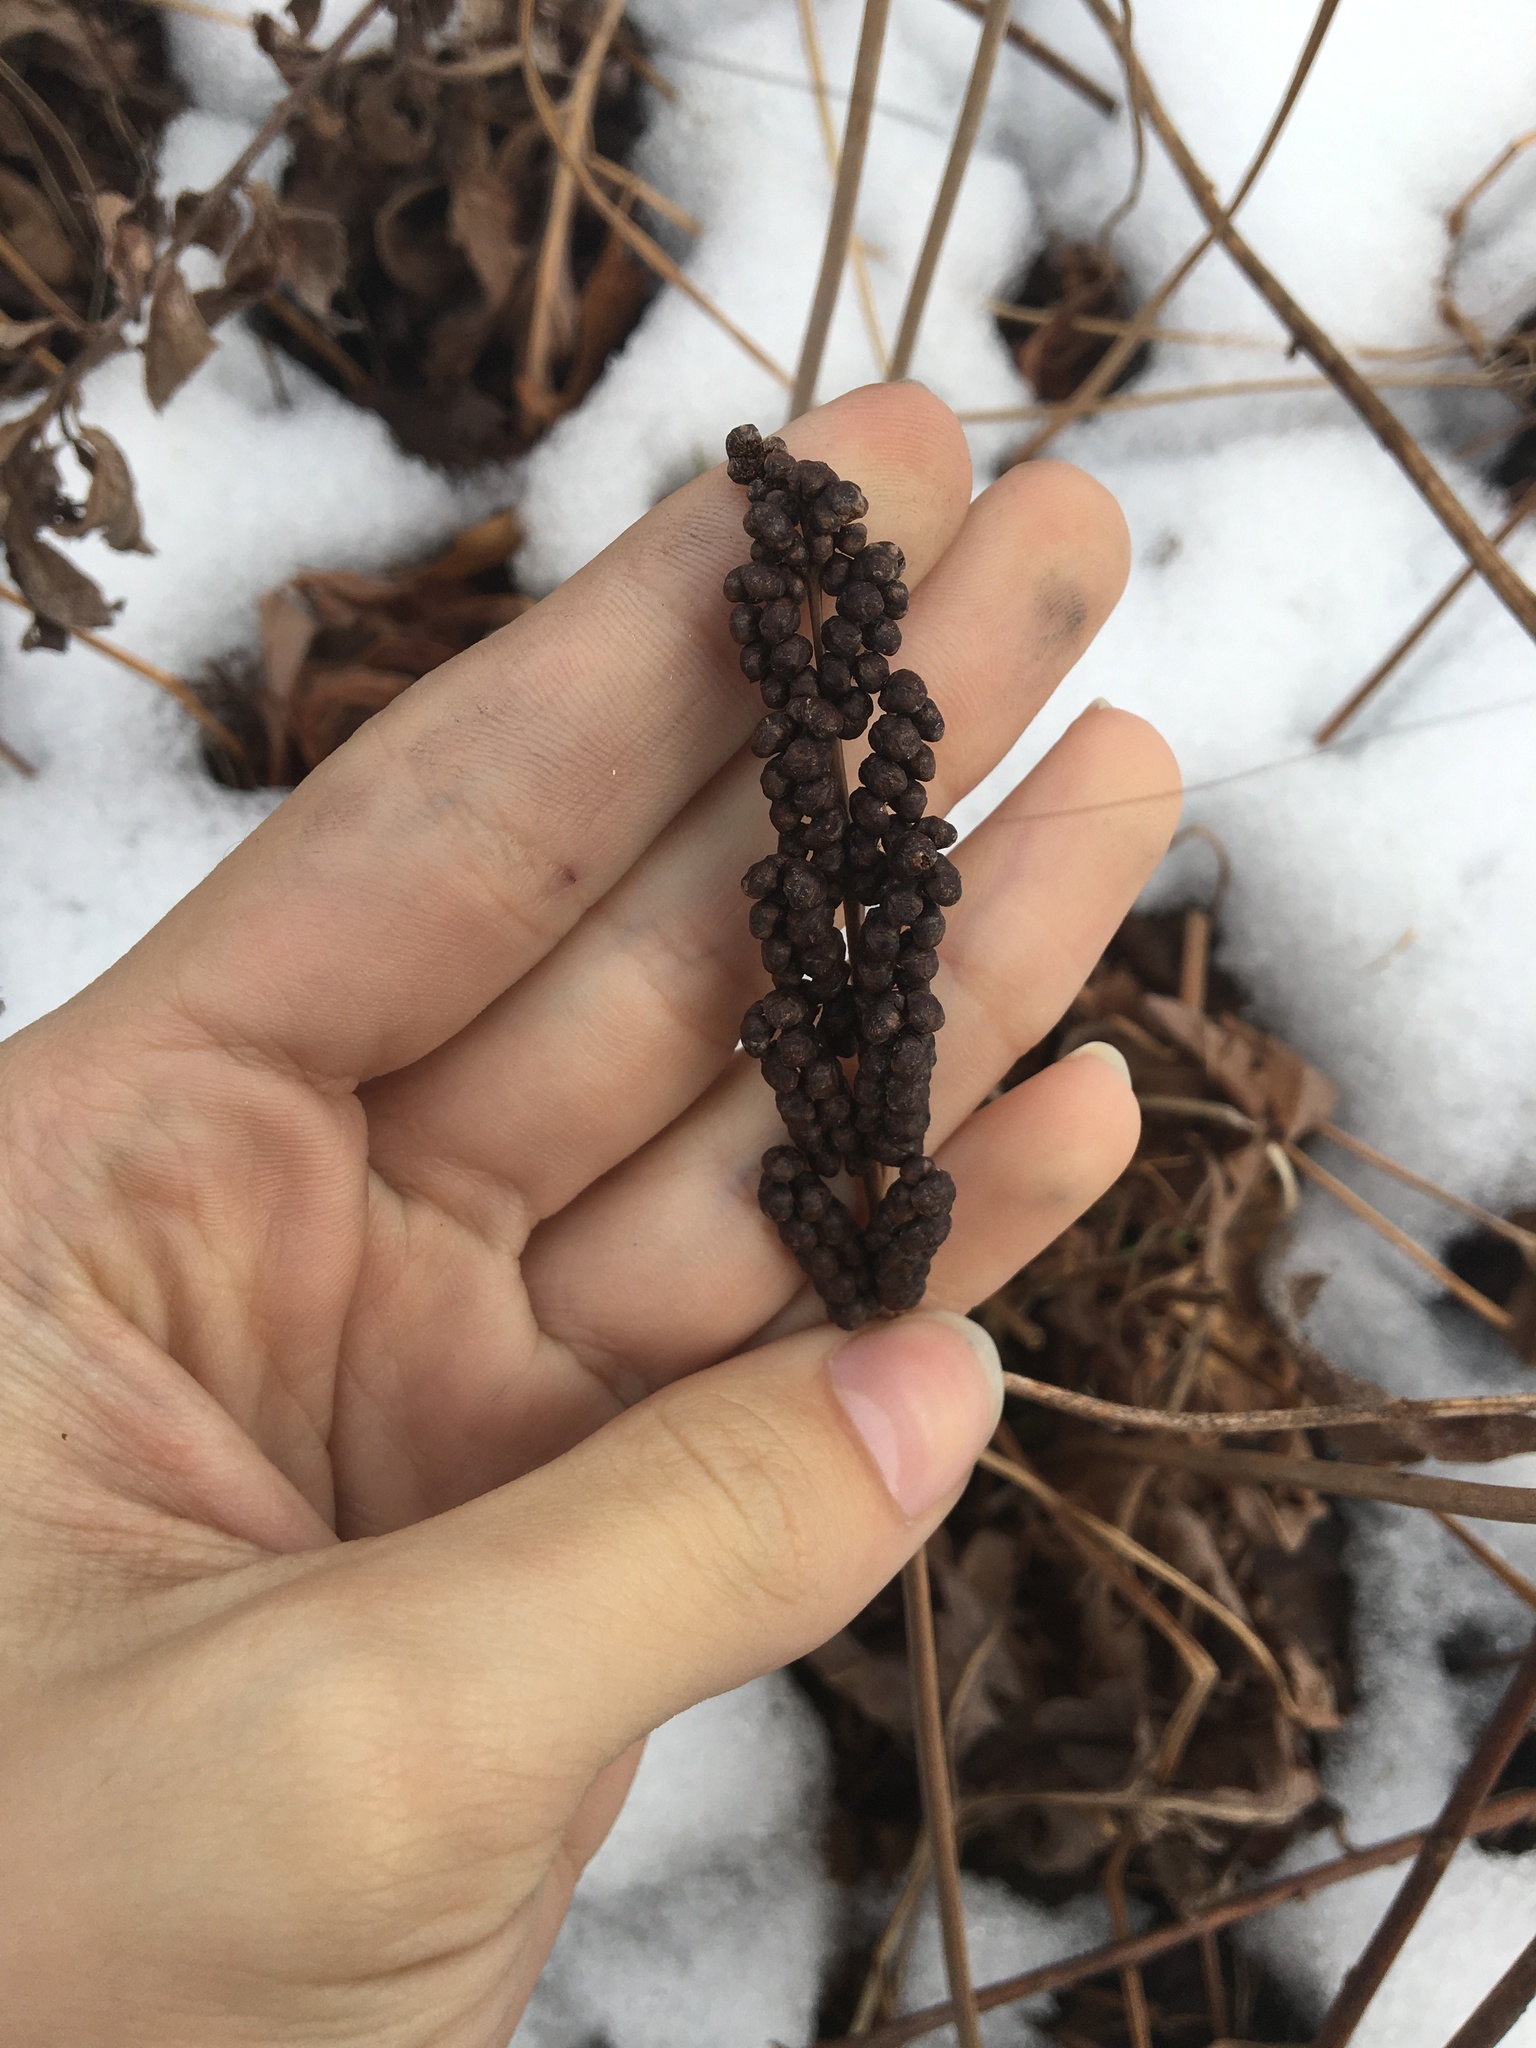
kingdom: Plantae
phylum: Tracheophyta
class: Polypodiopsida
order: Polypodiales
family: Onocleaceae
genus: Onoclea
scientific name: Onoclea sensibilis
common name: Sensitive fern
